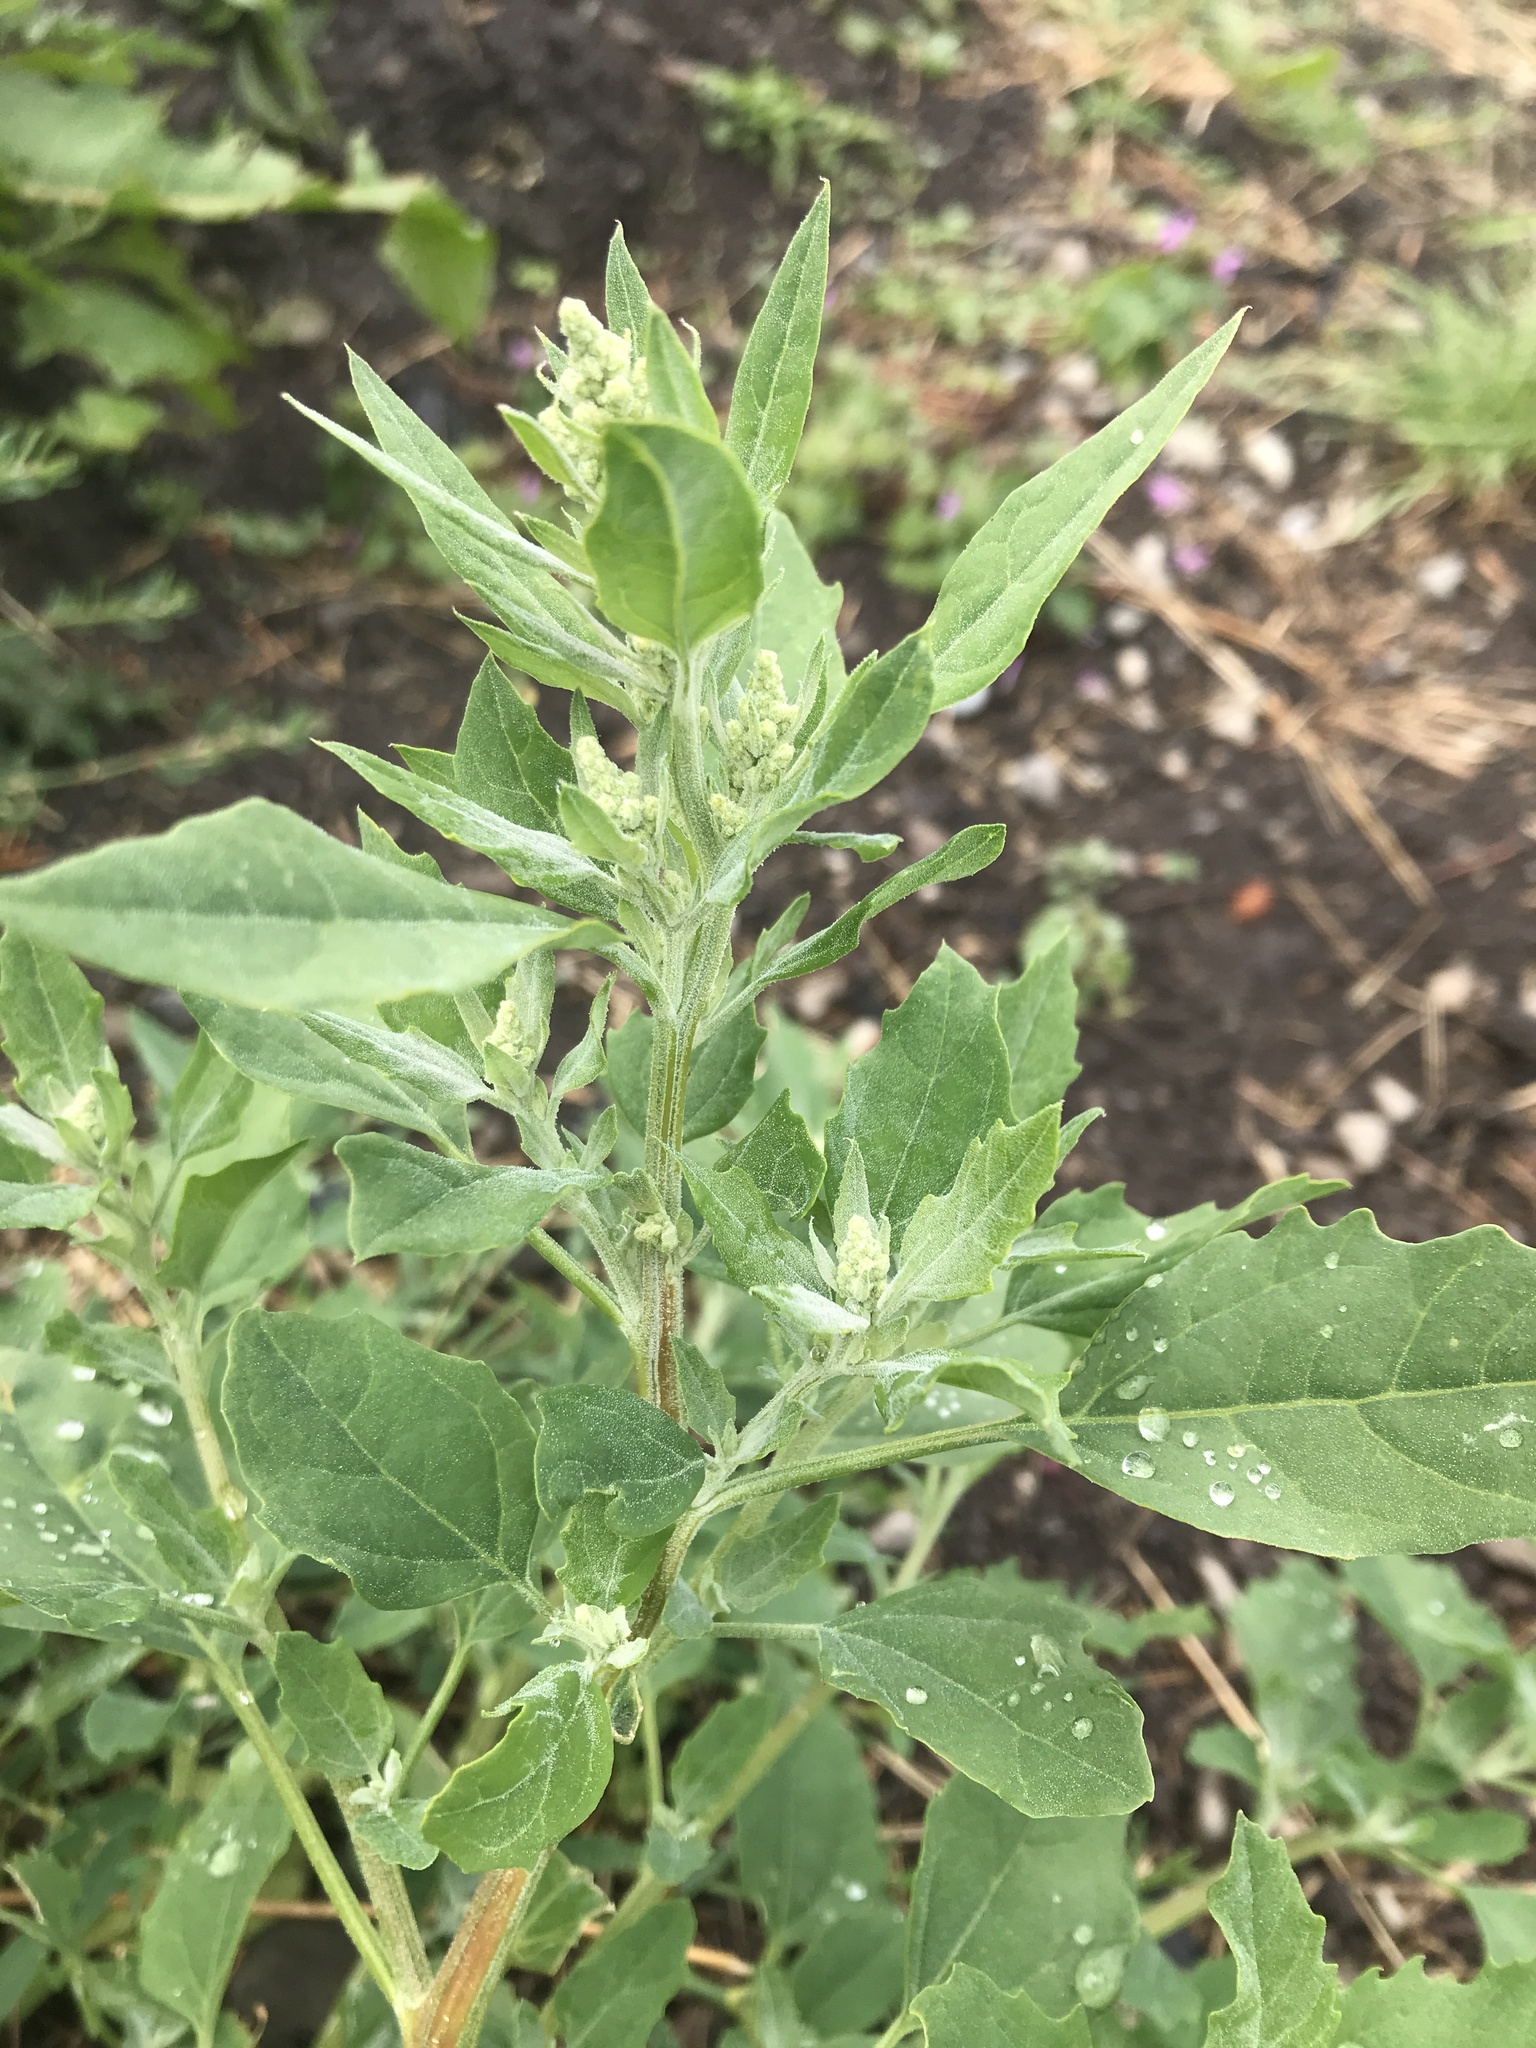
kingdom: Plantae
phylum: Tracheophyta
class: Magnoliopsida
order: Caryophyllales
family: Amaranthaceae
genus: Chenopodium
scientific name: Chenopodium album
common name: Fat-hen
